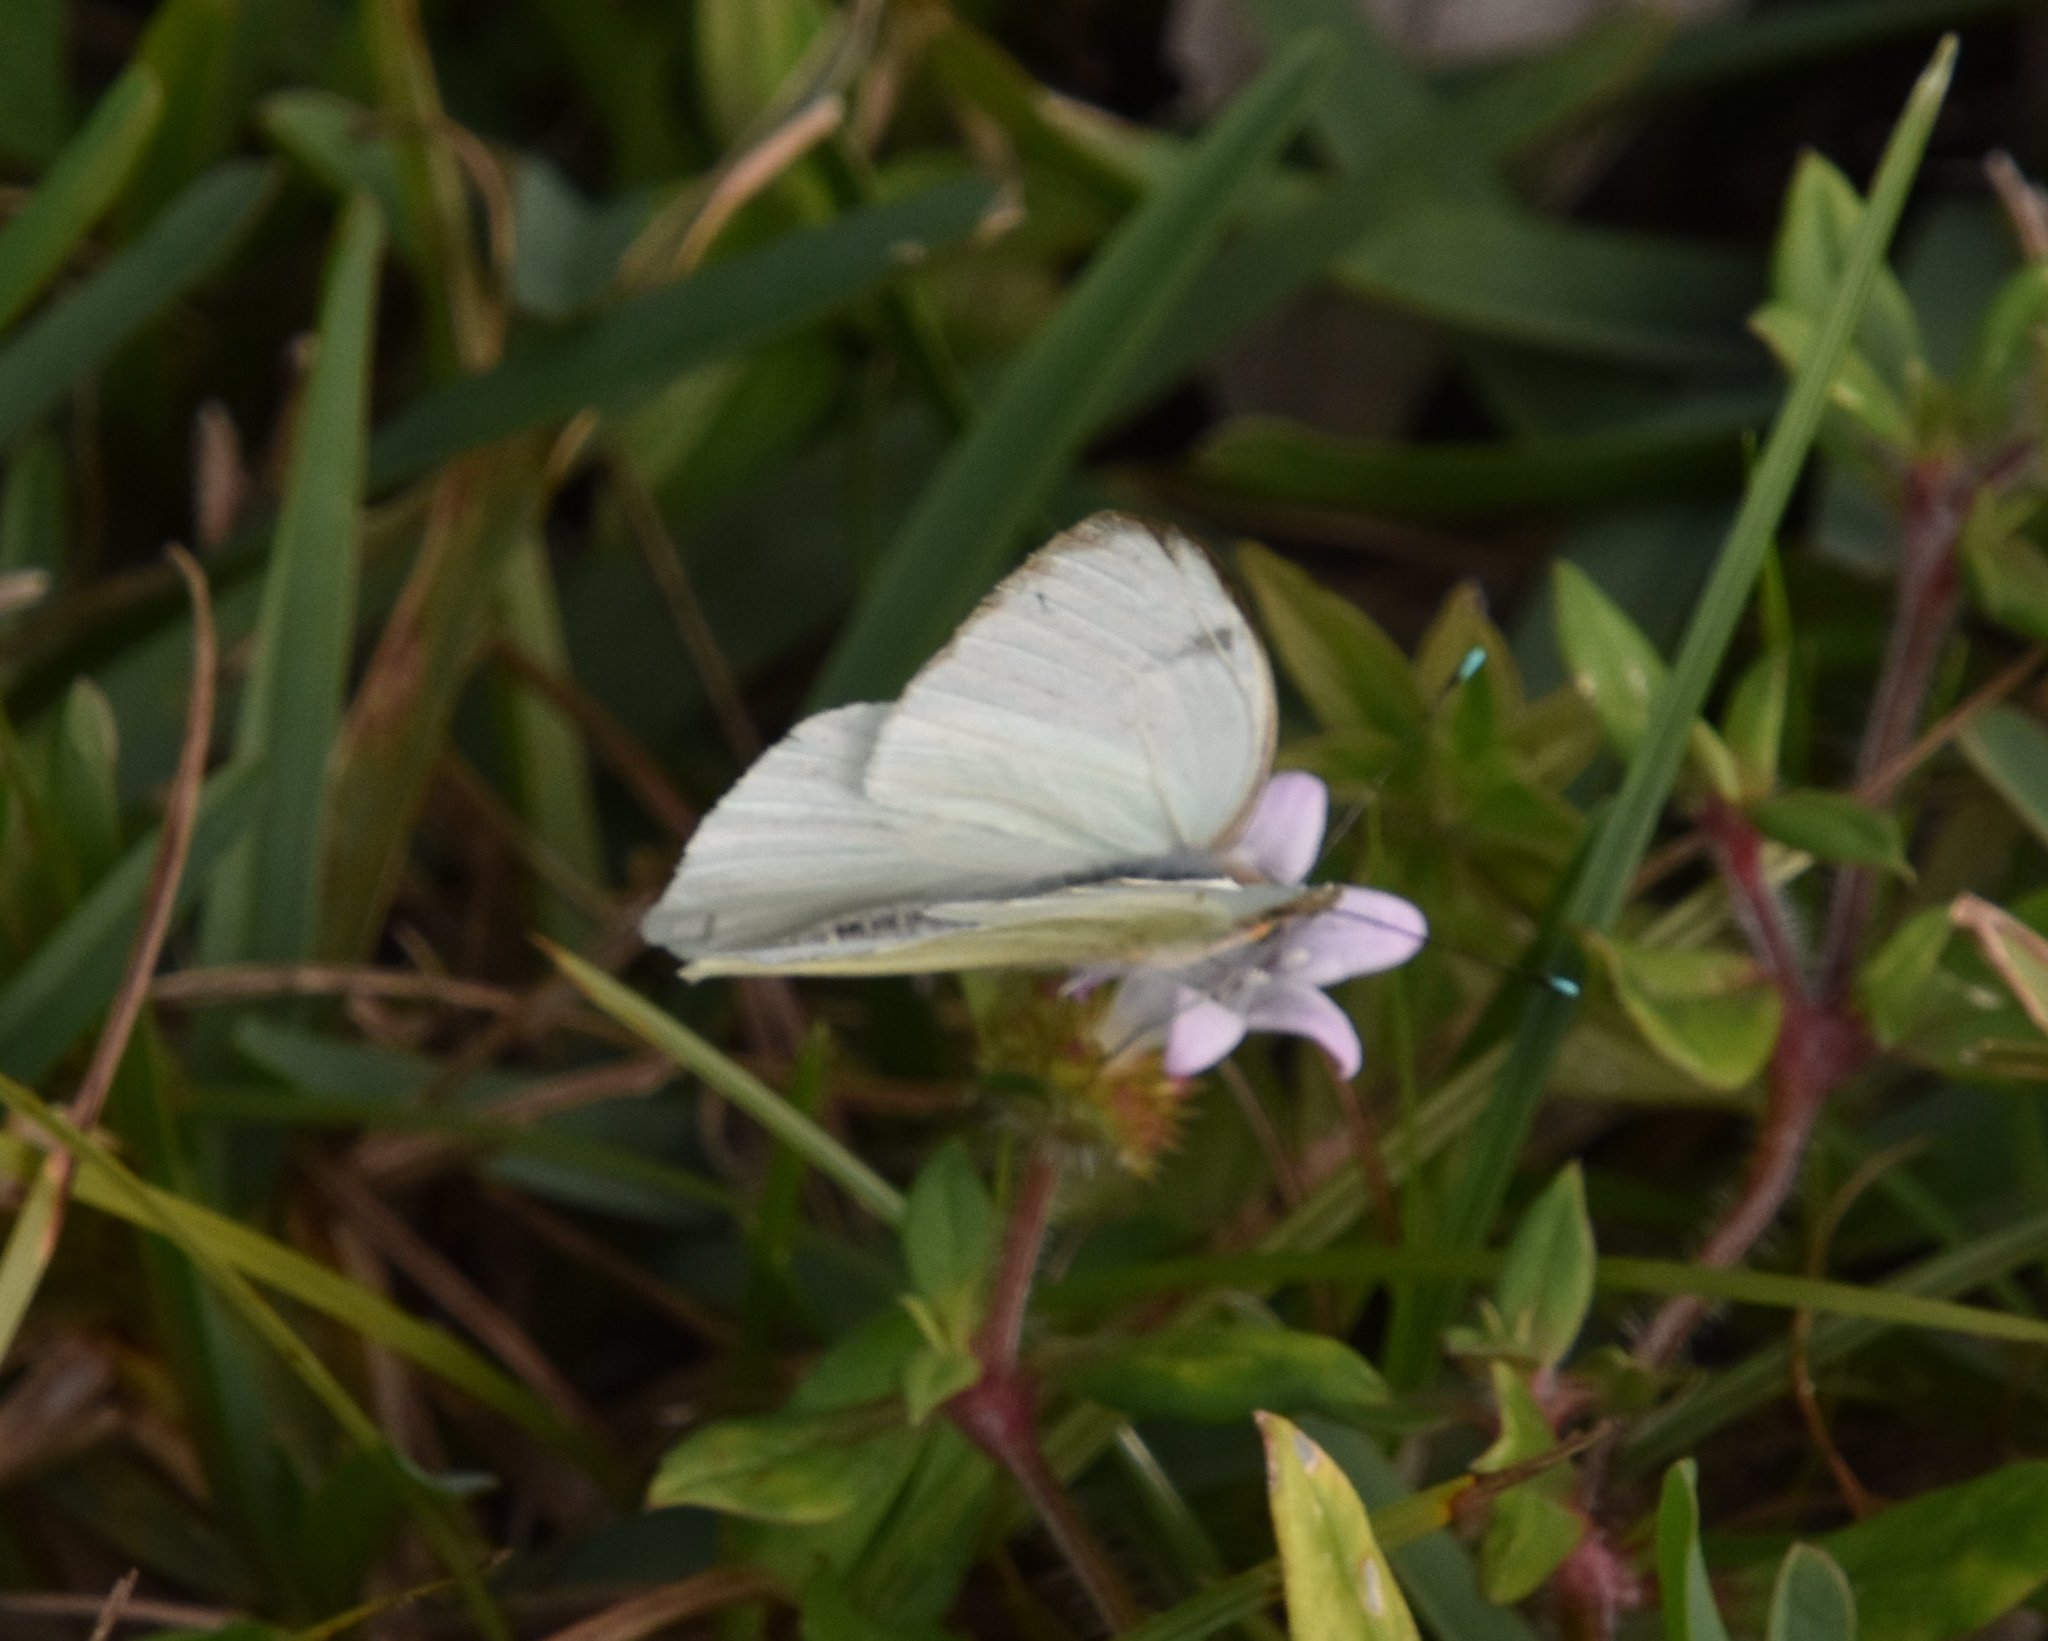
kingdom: Animalia
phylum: Arthropoda
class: Insecta
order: Lepidoptera
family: Pieridae
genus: Ascia
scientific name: Ascia monuste
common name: Great southern white
